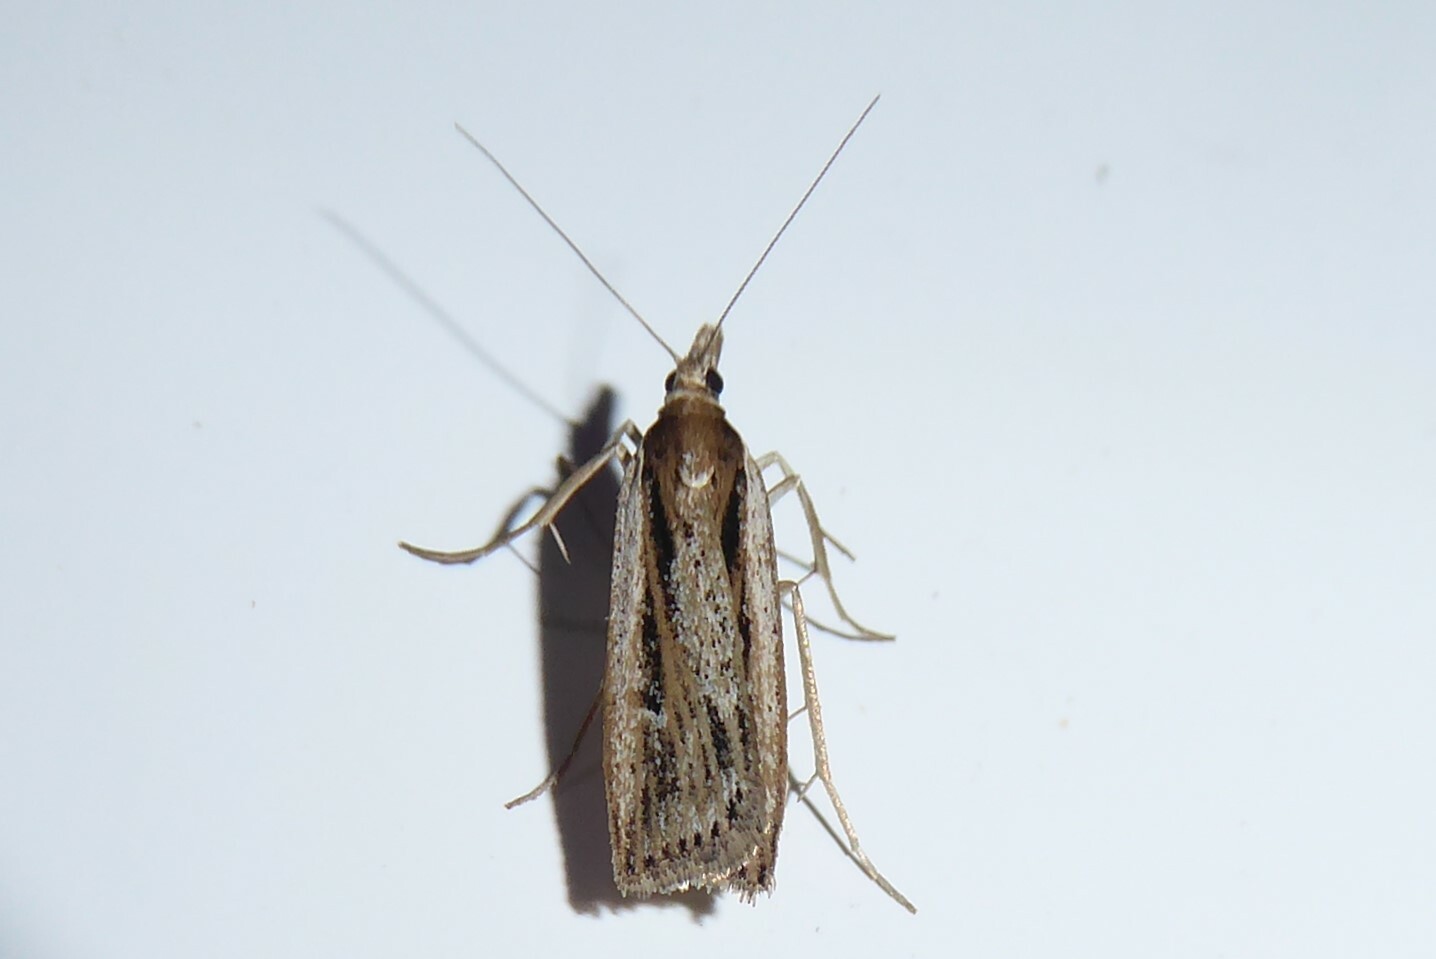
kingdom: Animalia
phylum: Arthropoda
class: Insecta
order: Lepidoptera
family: Crambidae
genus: Eudonia
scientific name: Eudonia sabulosella
